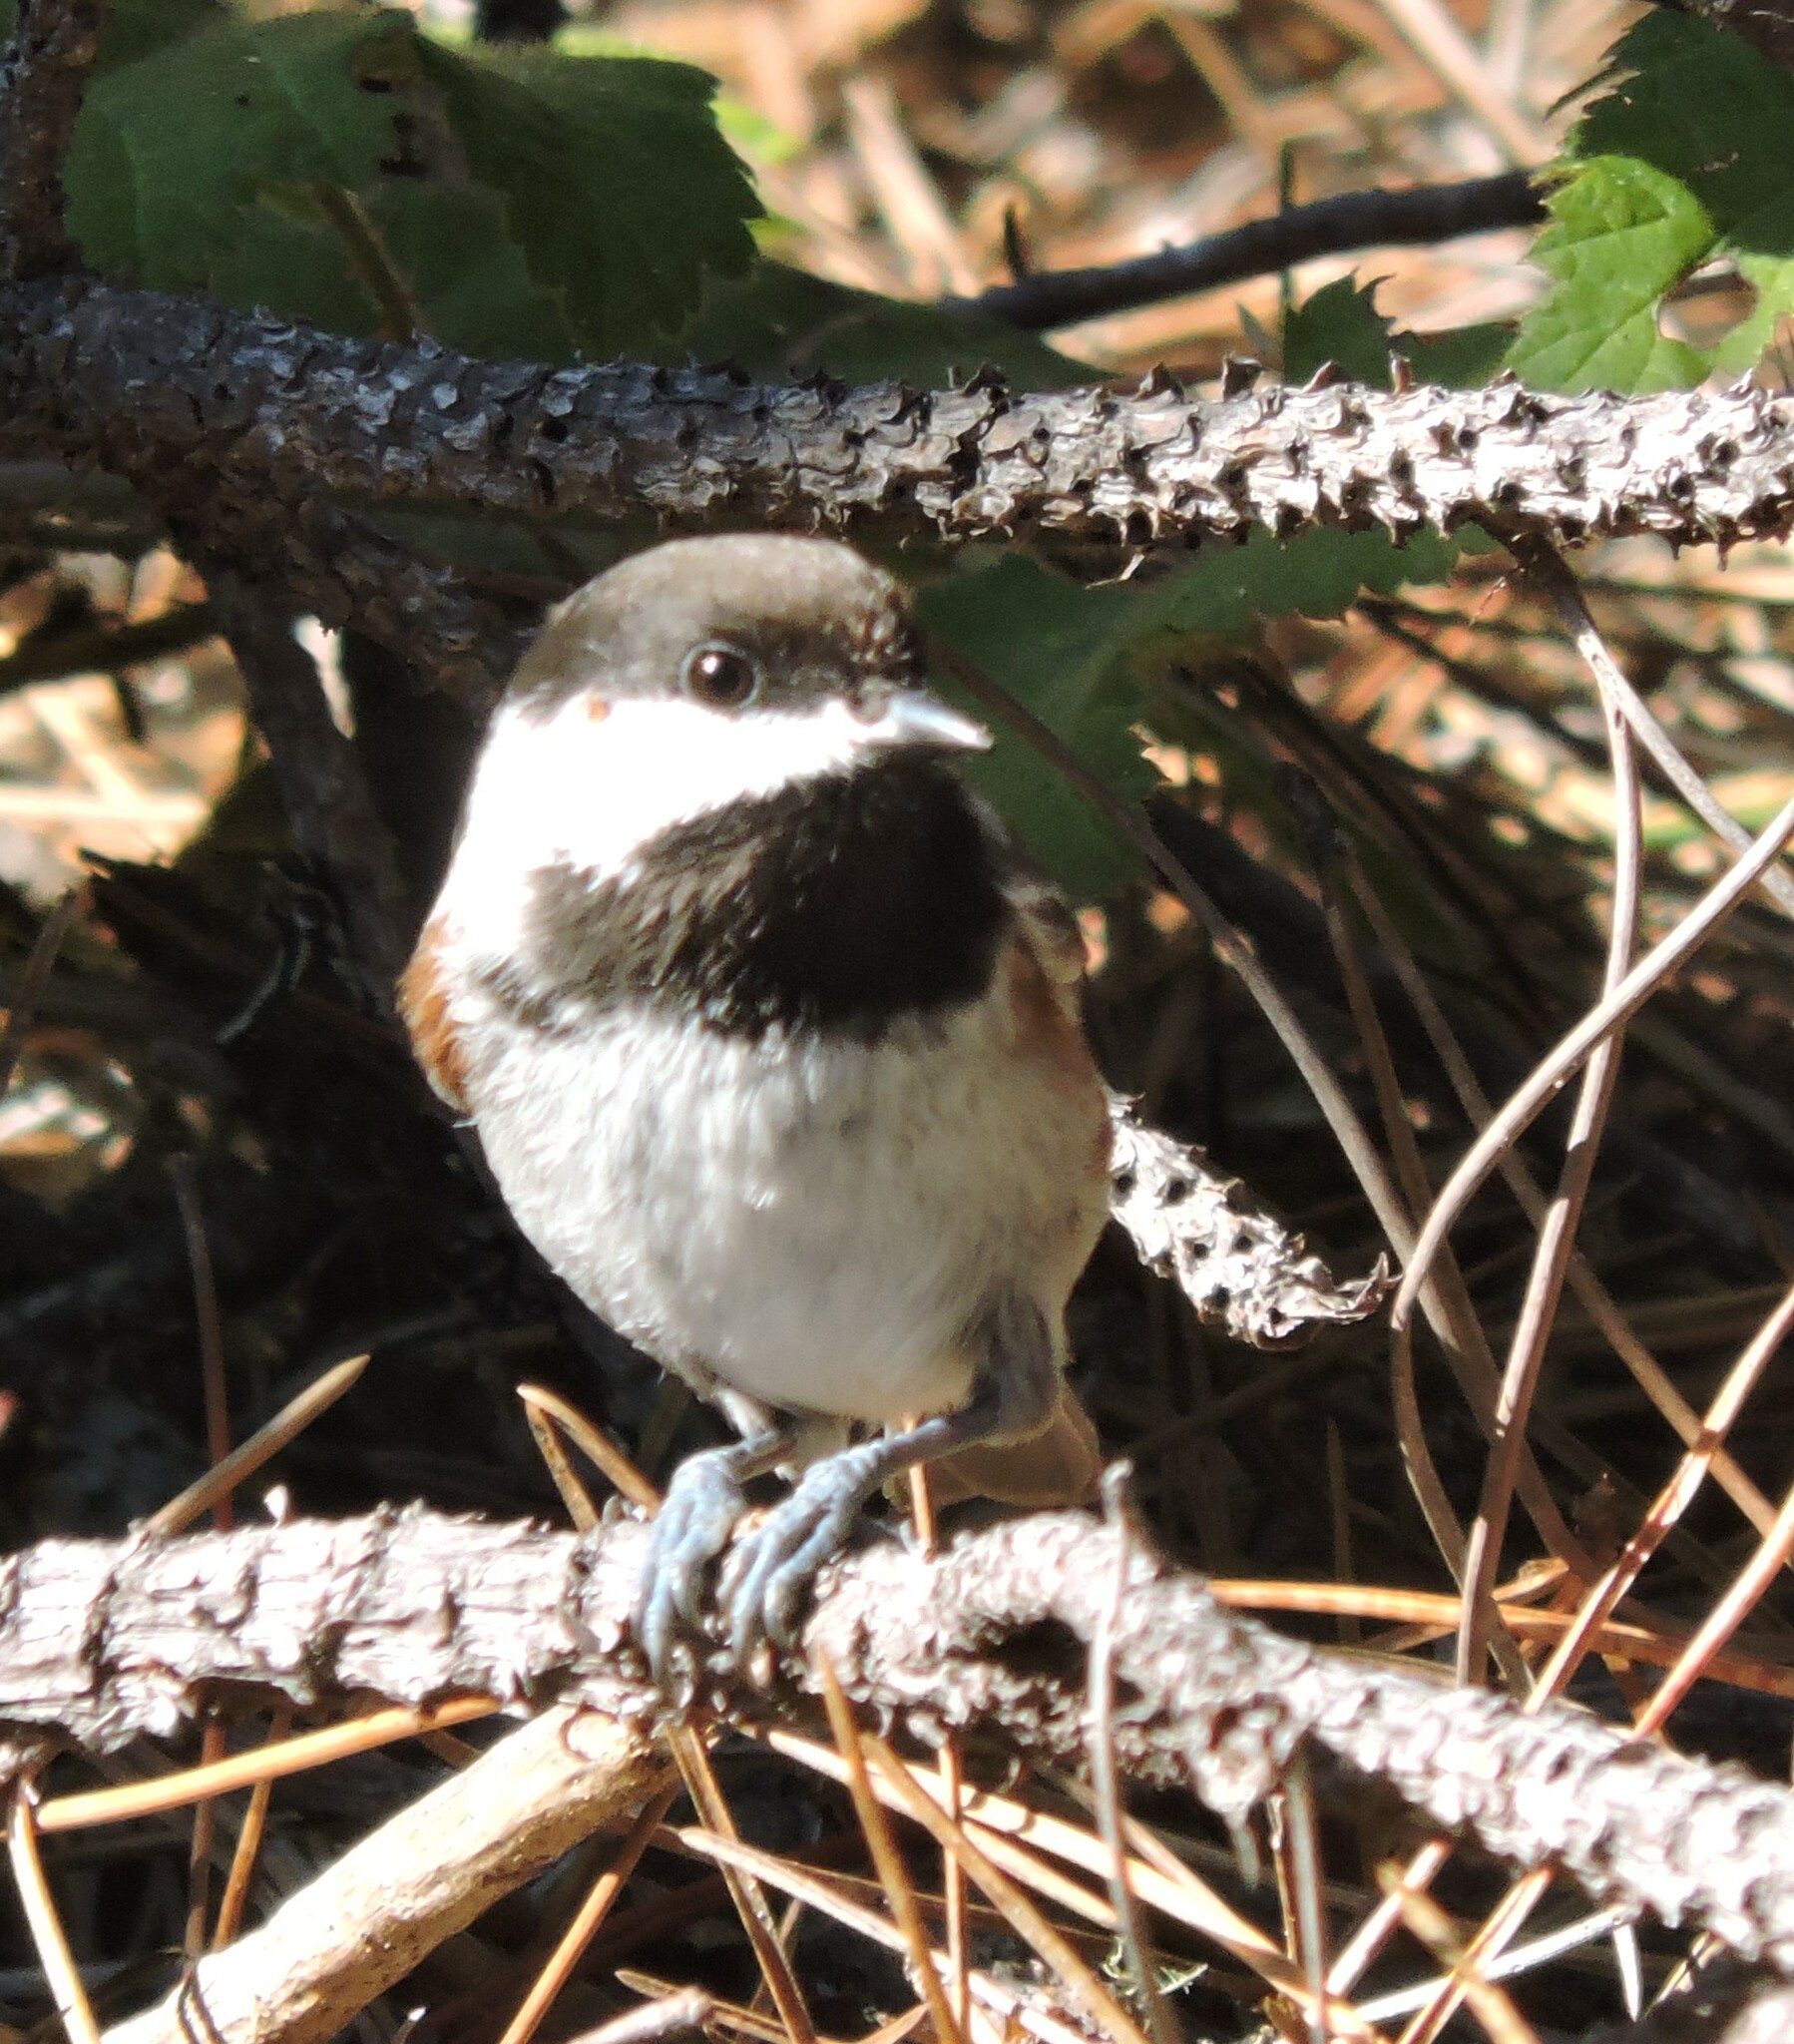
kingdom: Animalia
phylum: Chordata
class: Aves
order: Passeriformes
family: Paridae
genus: Poecile
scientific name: Poecile rufescens
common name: Chestnut-backed chickadee
